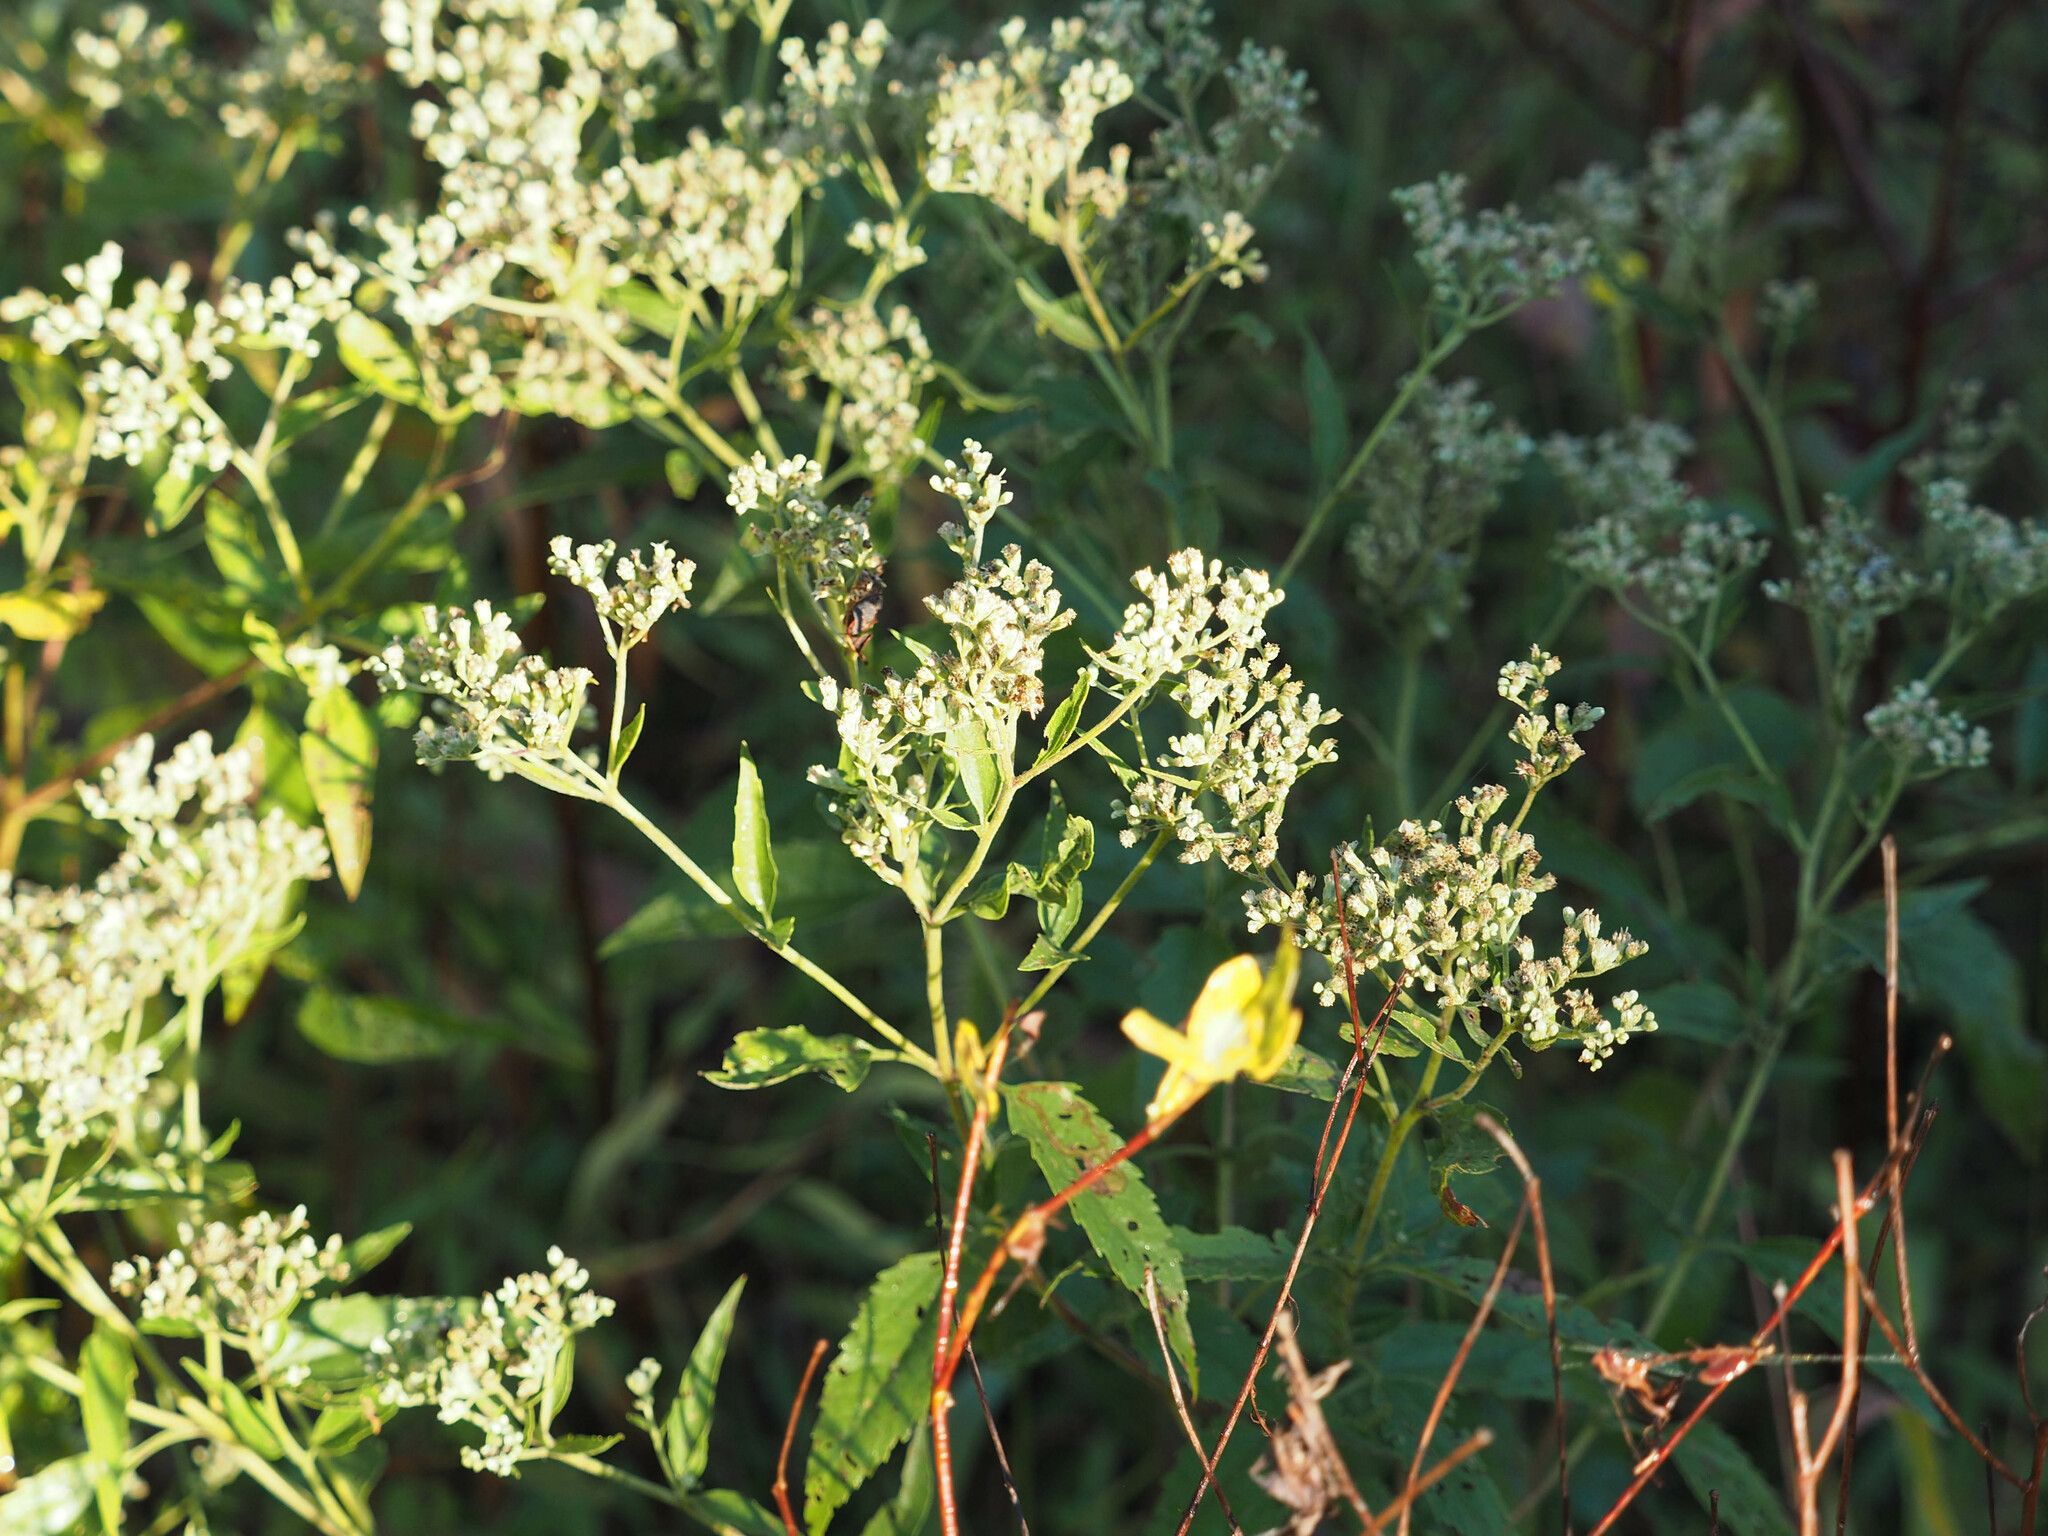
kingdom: Plantae
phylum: Tracheophyta
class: Magnoliopsida
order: Asterales
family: Asteraceae
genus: Eupatorium
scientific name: Eupatorium serotinum
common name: Late boneset
